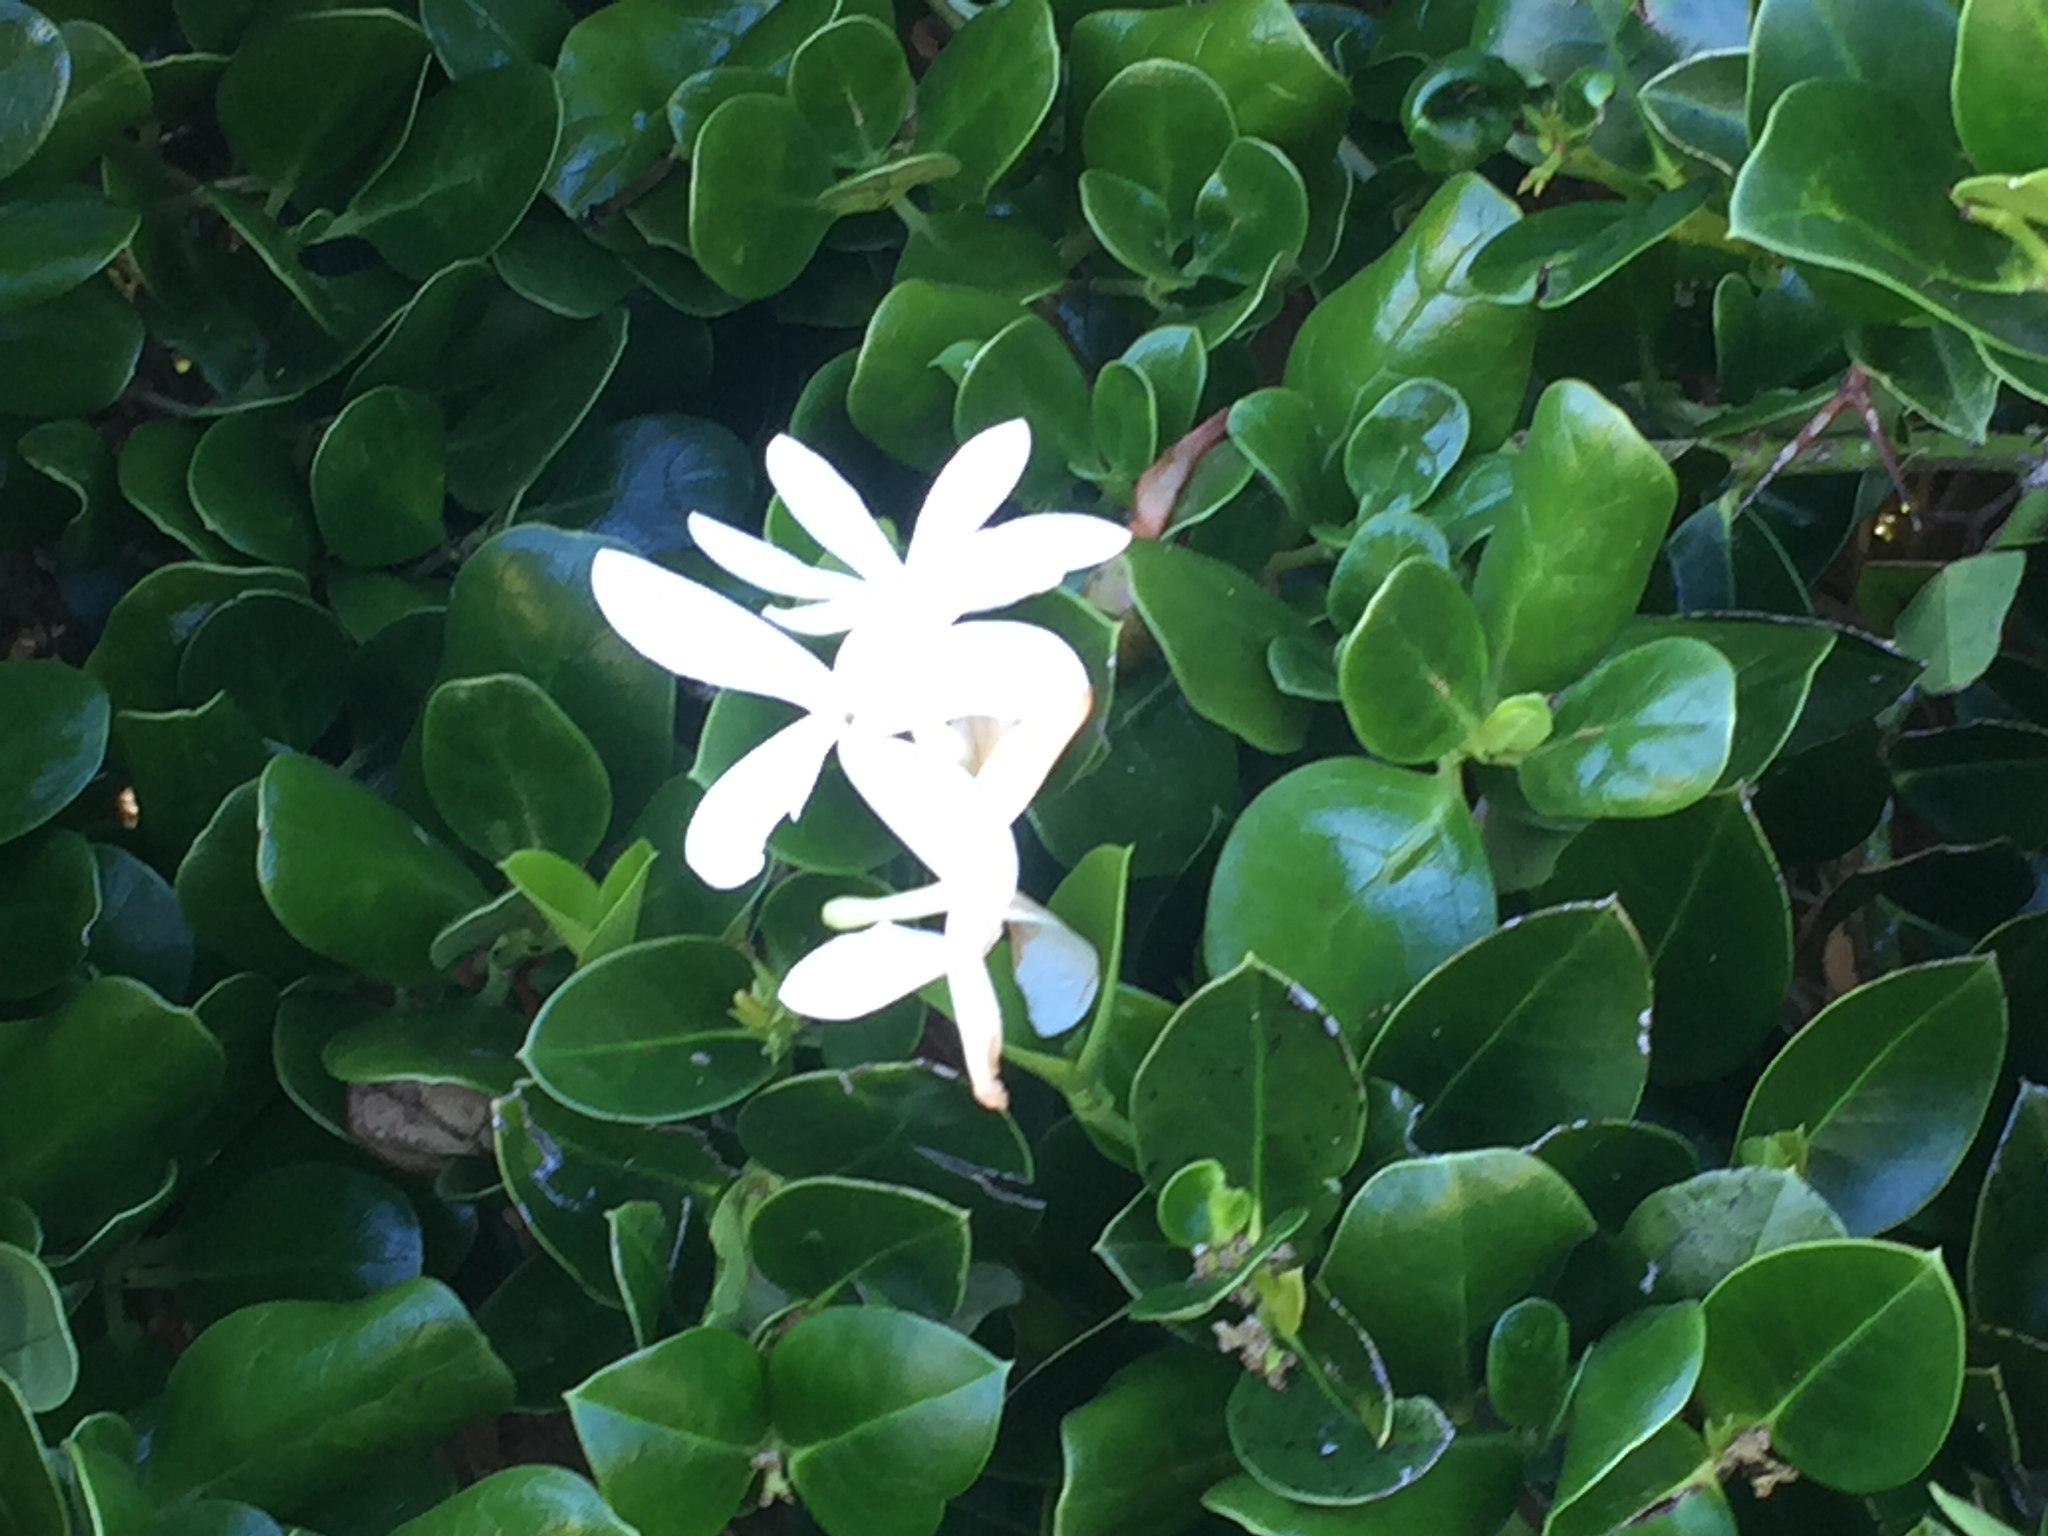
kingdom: Plantae
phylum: Tracheophyta
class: Magnoliopsida
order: Gentianales
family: Apocynaceae
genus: Carissa
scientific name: Carissa macrocarpa
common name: Natal plum
